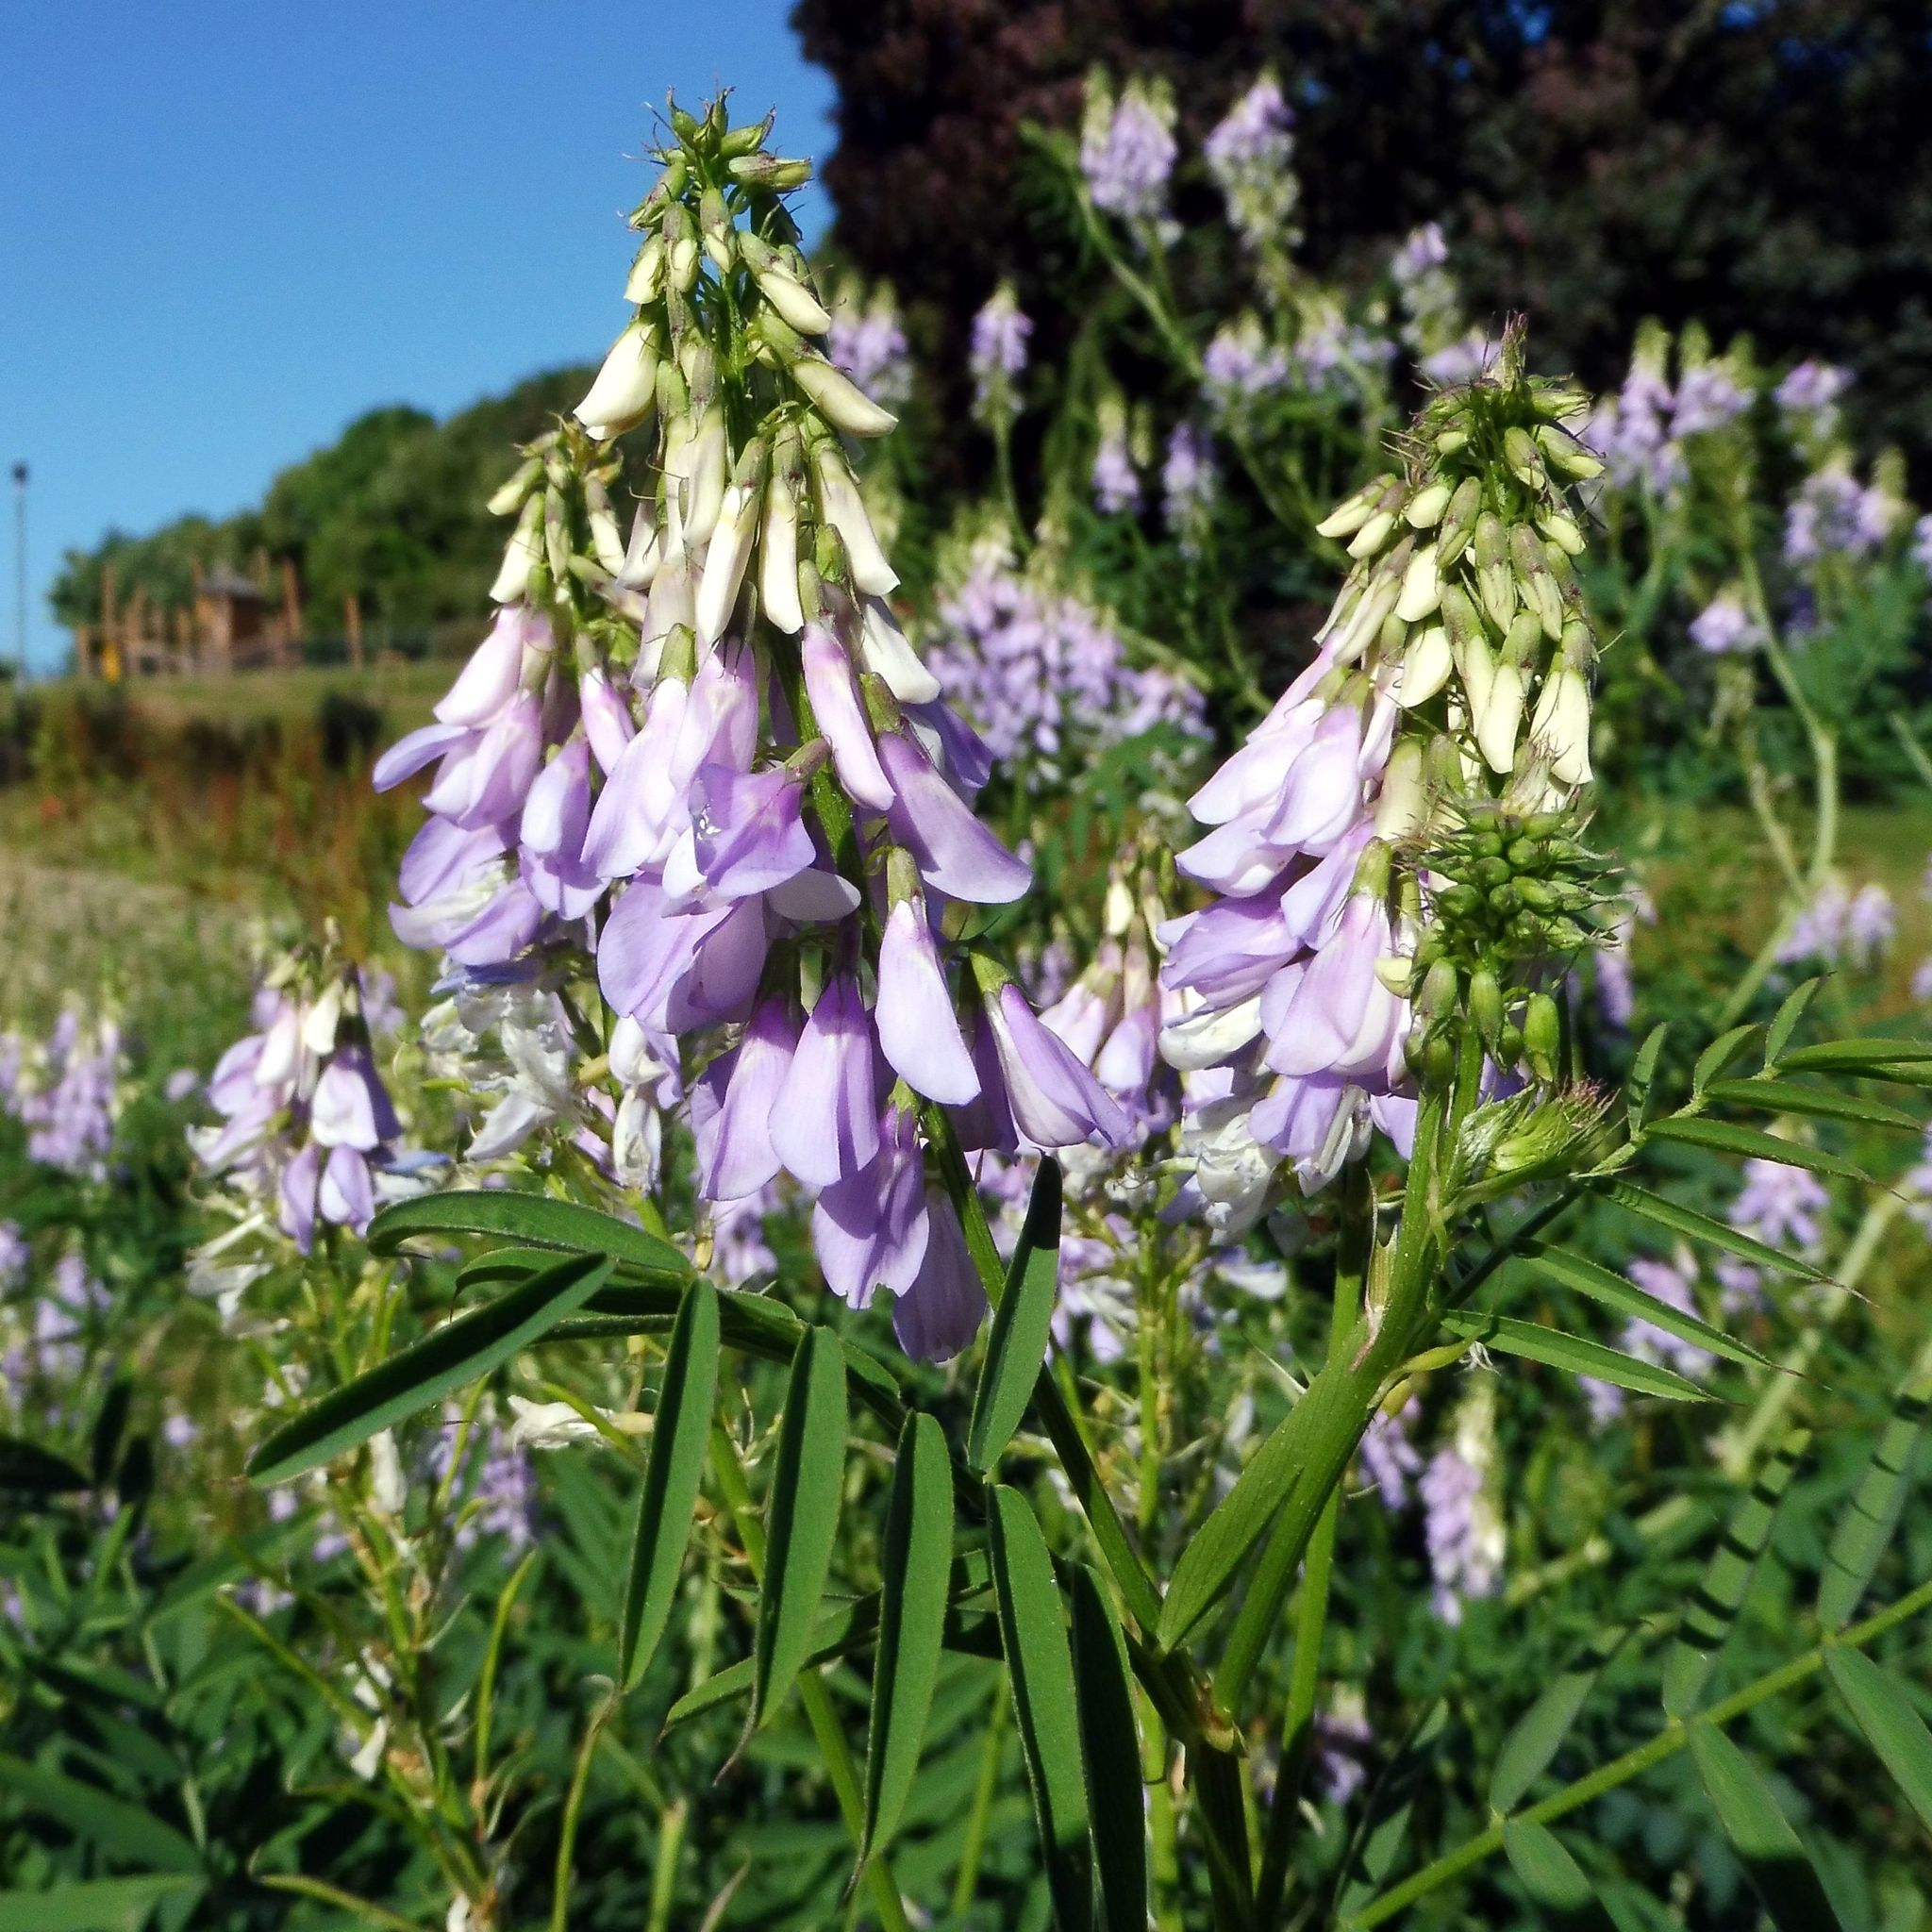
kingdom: Plantae
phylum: Tracheophyta
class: Magnoliopsida
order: Fabales
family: Fabaceae
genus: Galega
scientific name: Galega officinalis
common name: Goat's-rue
